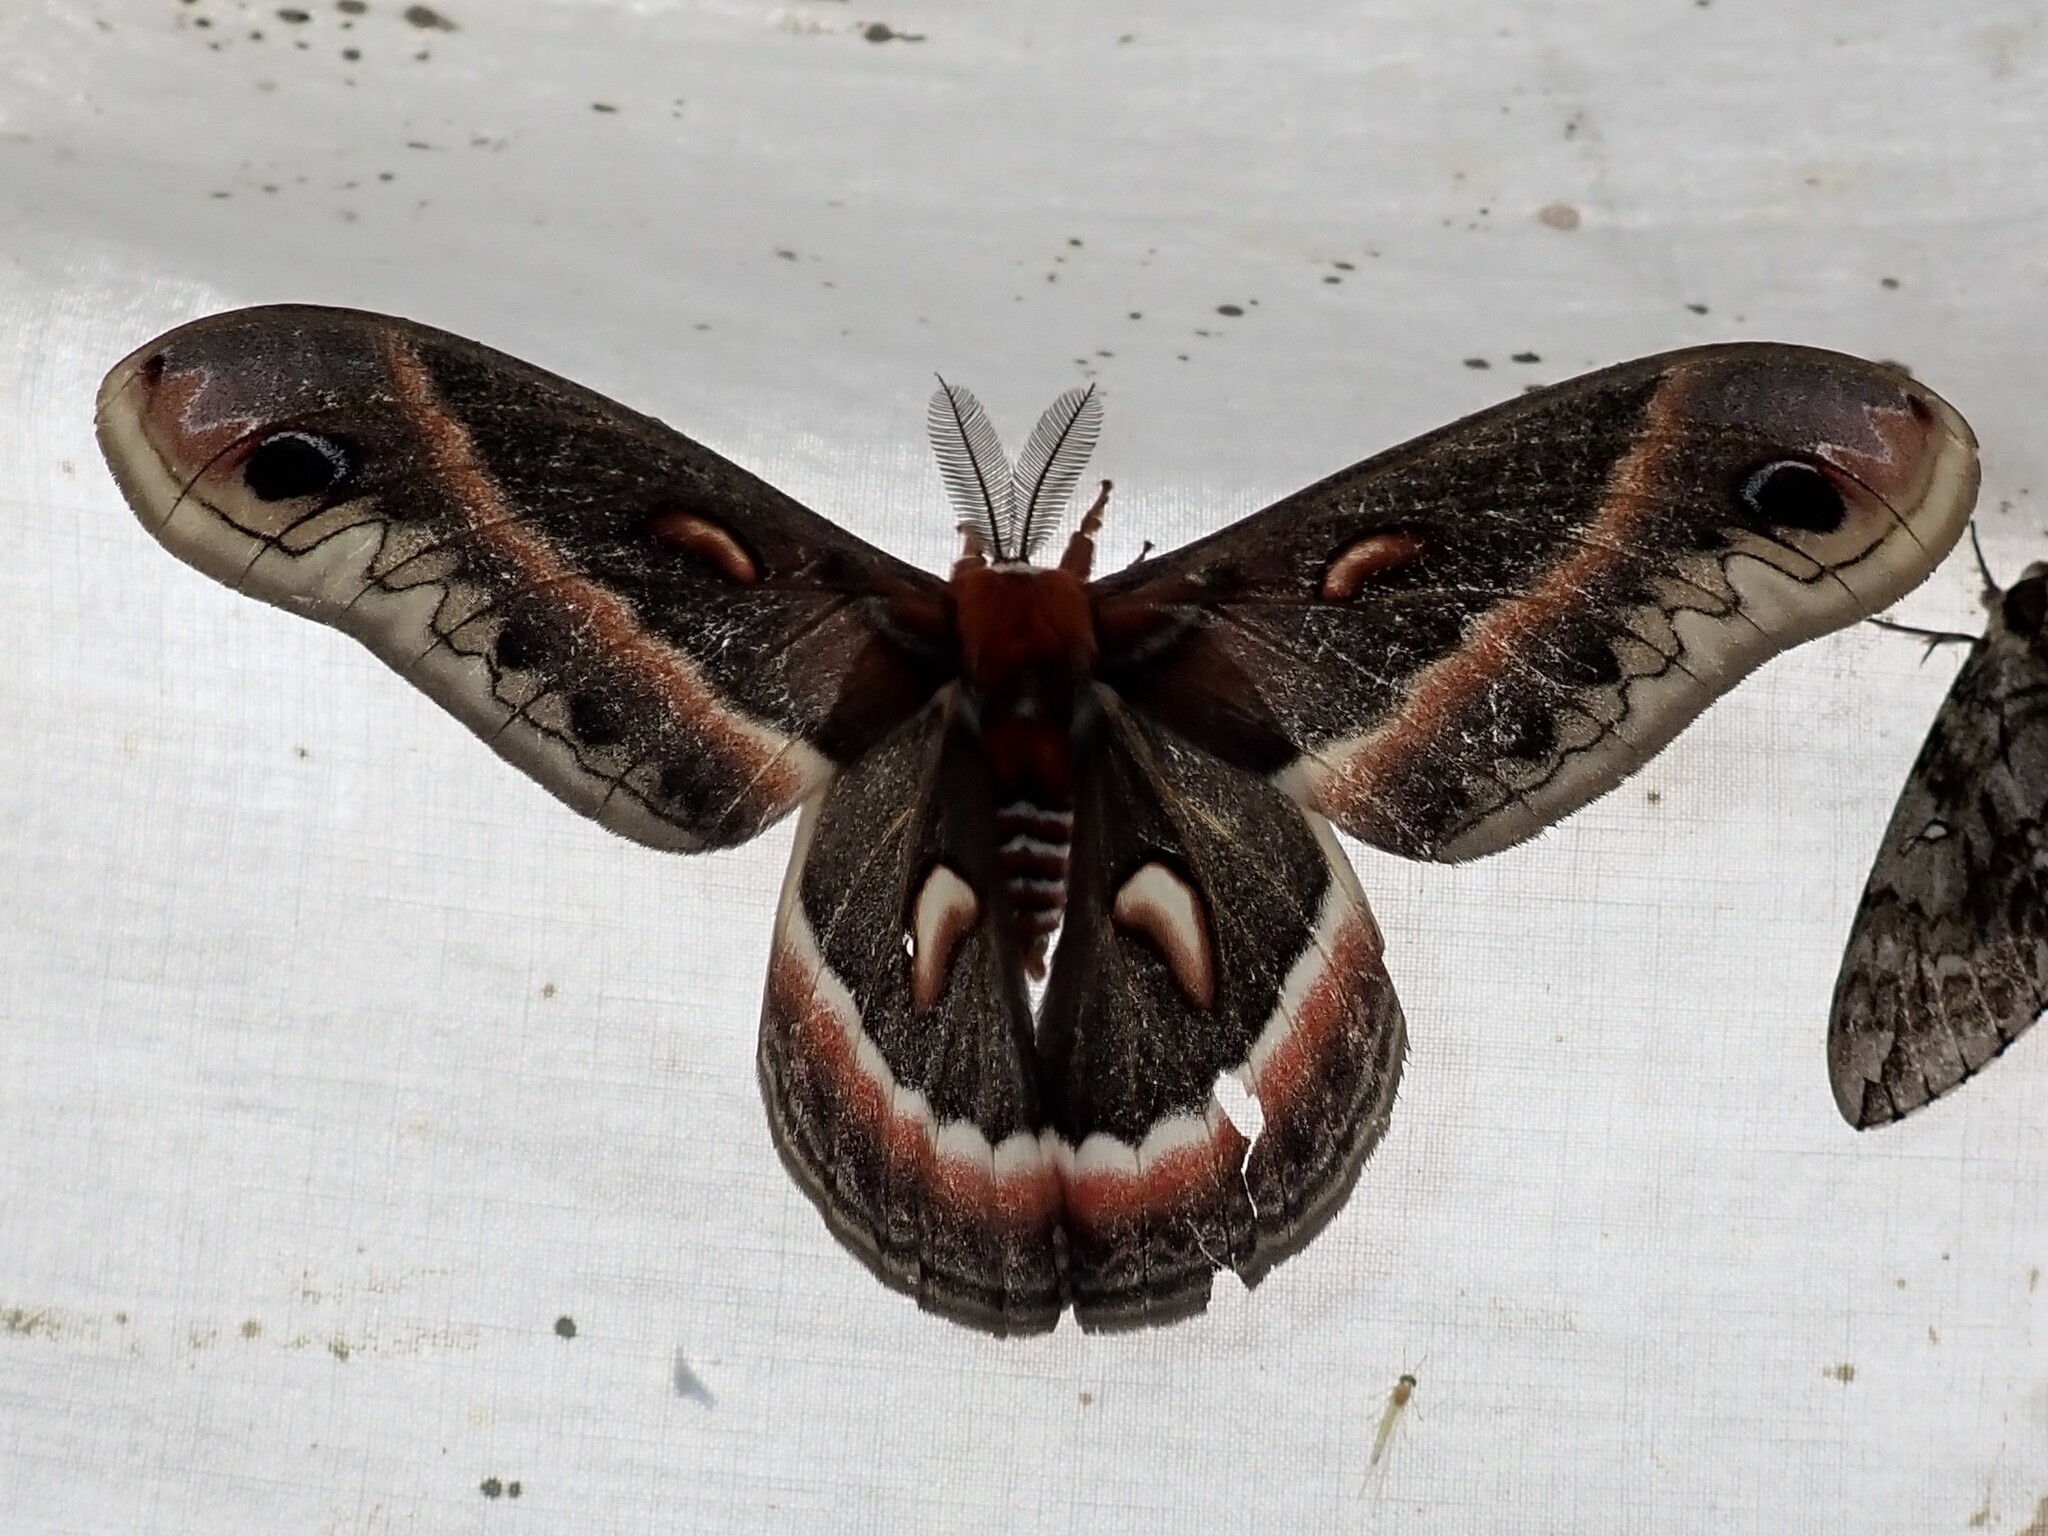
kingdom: Animalia
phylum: Arthropoda
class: Insecta
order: Lepidoptera
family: Saturniidae
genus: Hyalophora
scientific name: Hyalophora cecropia
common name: Cecropia silkmoth
